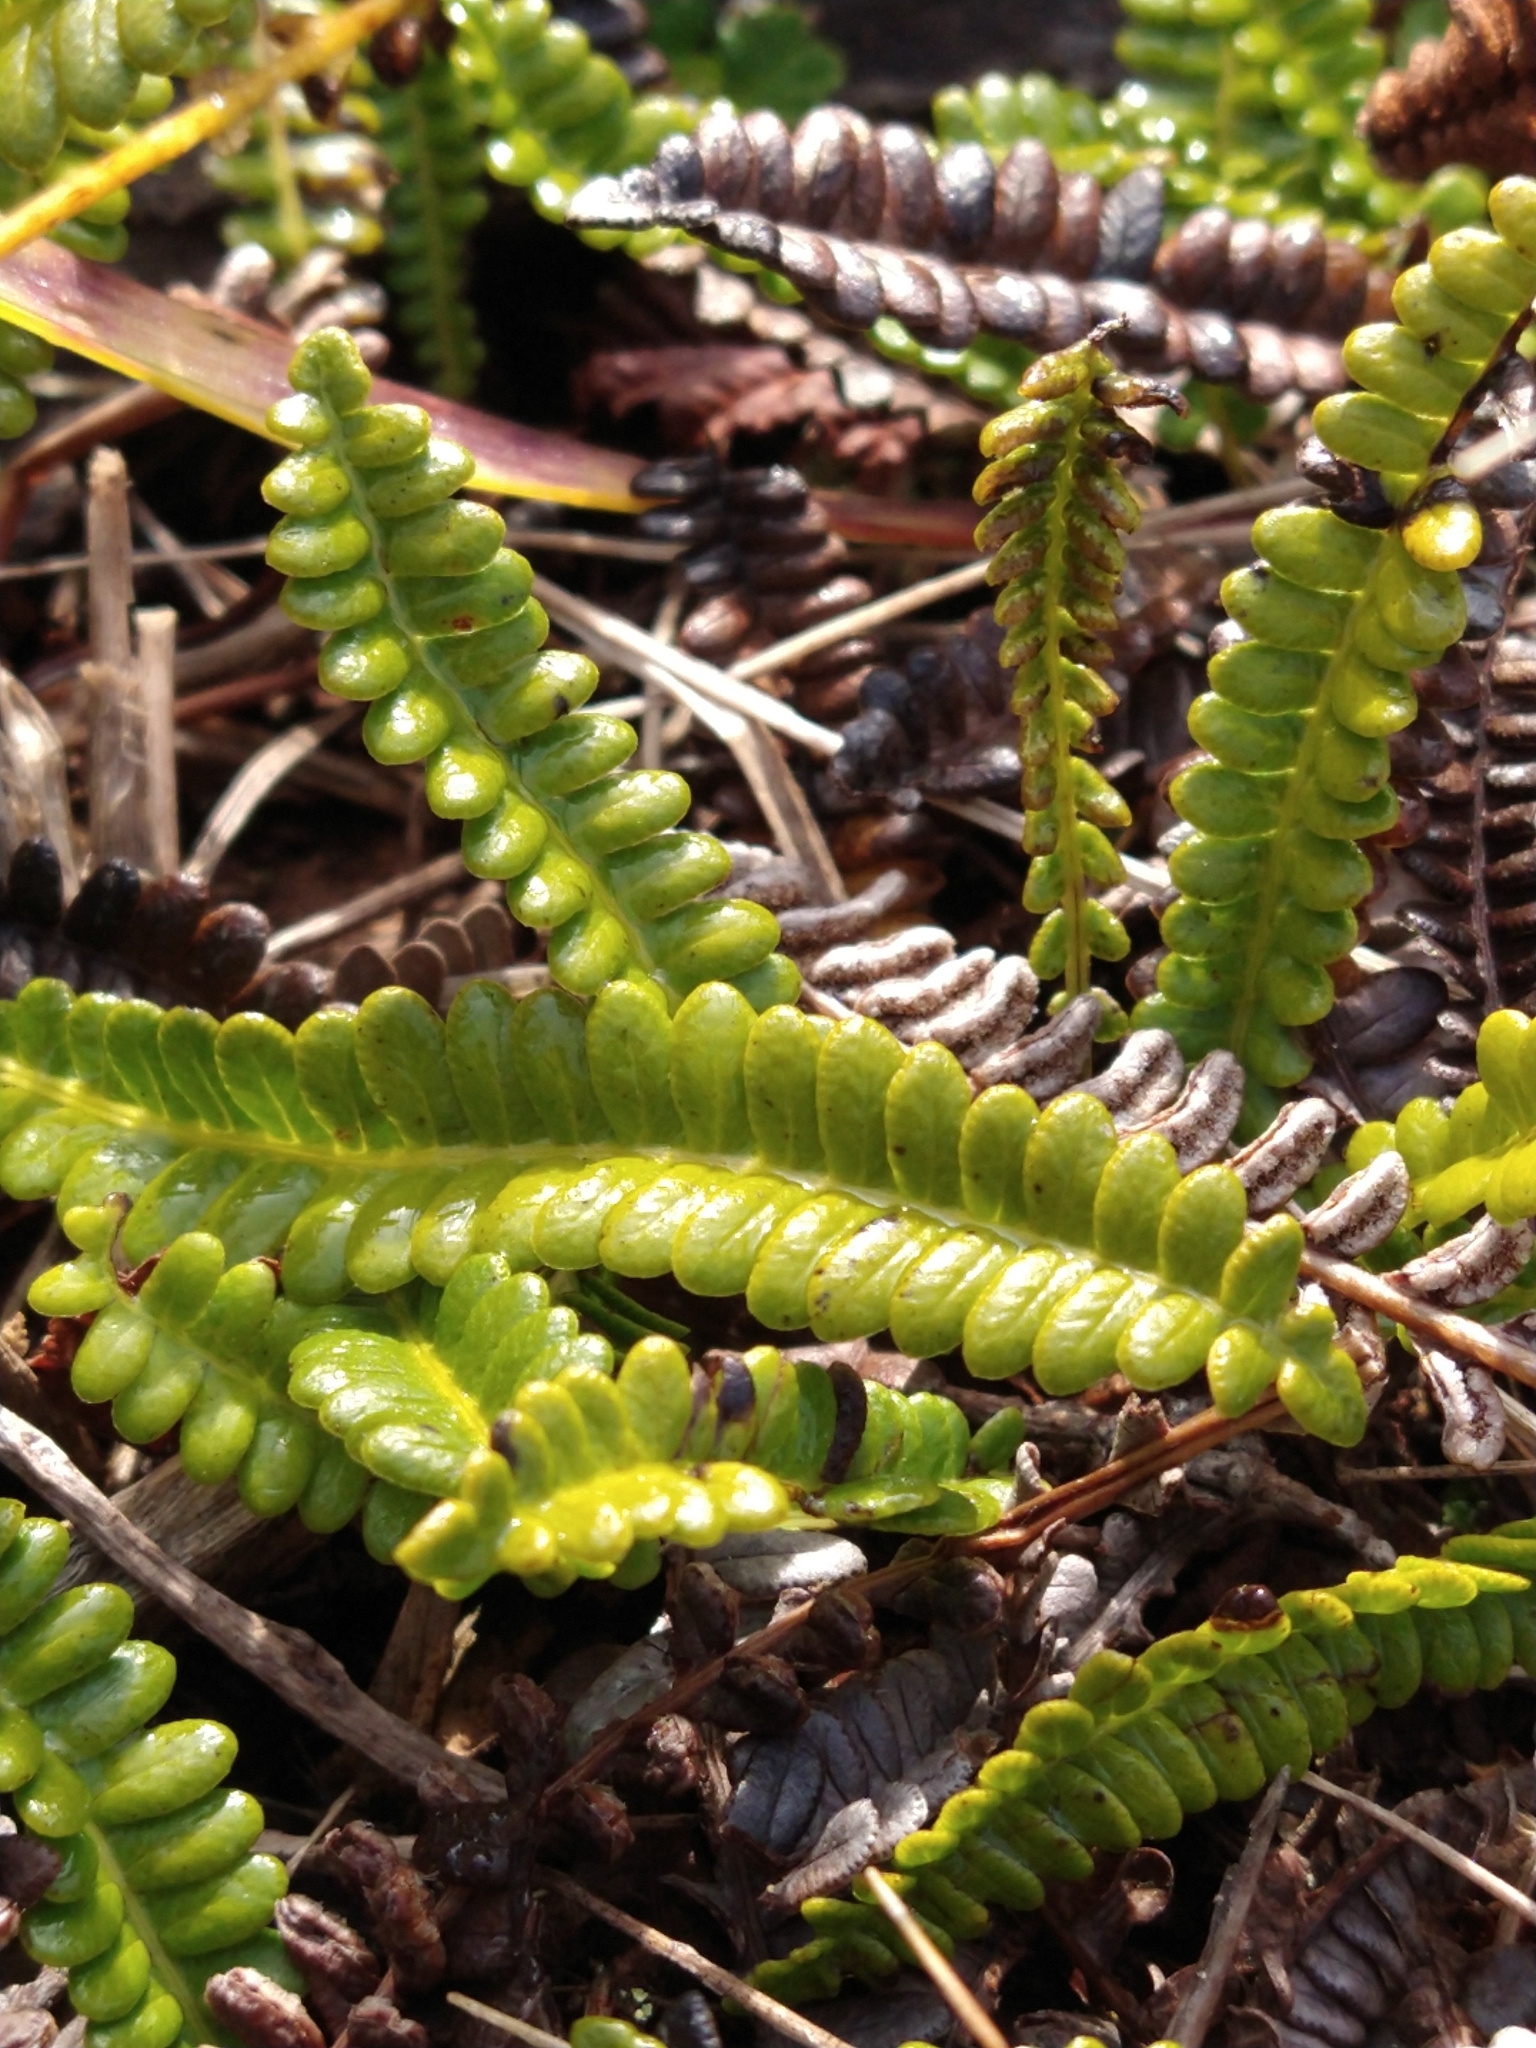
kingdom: Plantae
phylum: Tracheophyta
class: Polypodiopsida
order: Polypodiales
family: Blechnaceae
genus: Austroblechnum
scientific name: Austroblechnum penna-marina
